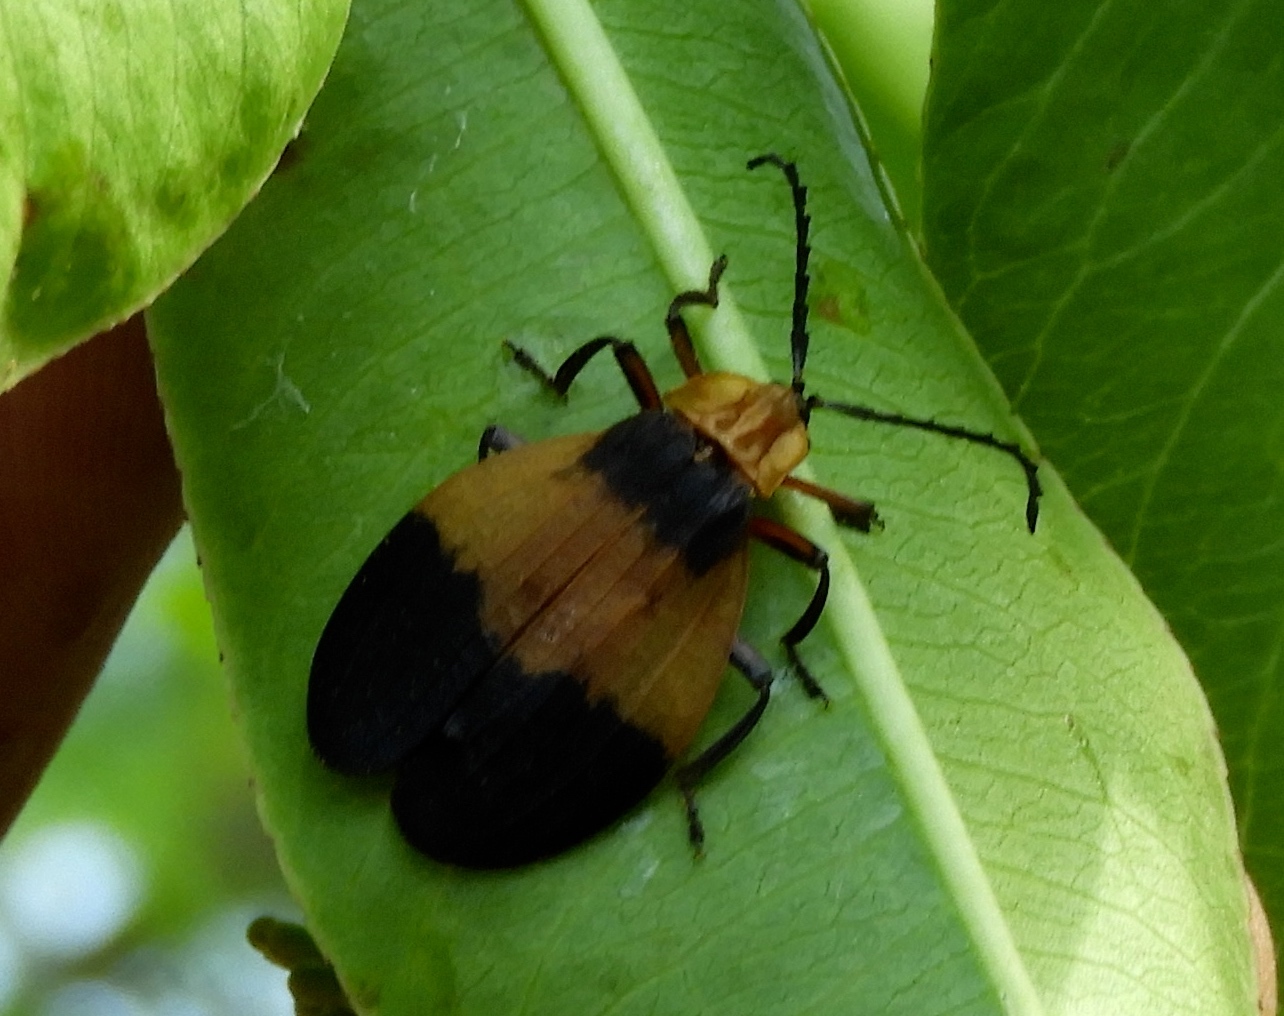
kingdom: Animalia
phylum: Arthropoda
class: Insecta
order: Coleoptera
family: Lycidae
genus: Lycus
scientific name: Lycus
